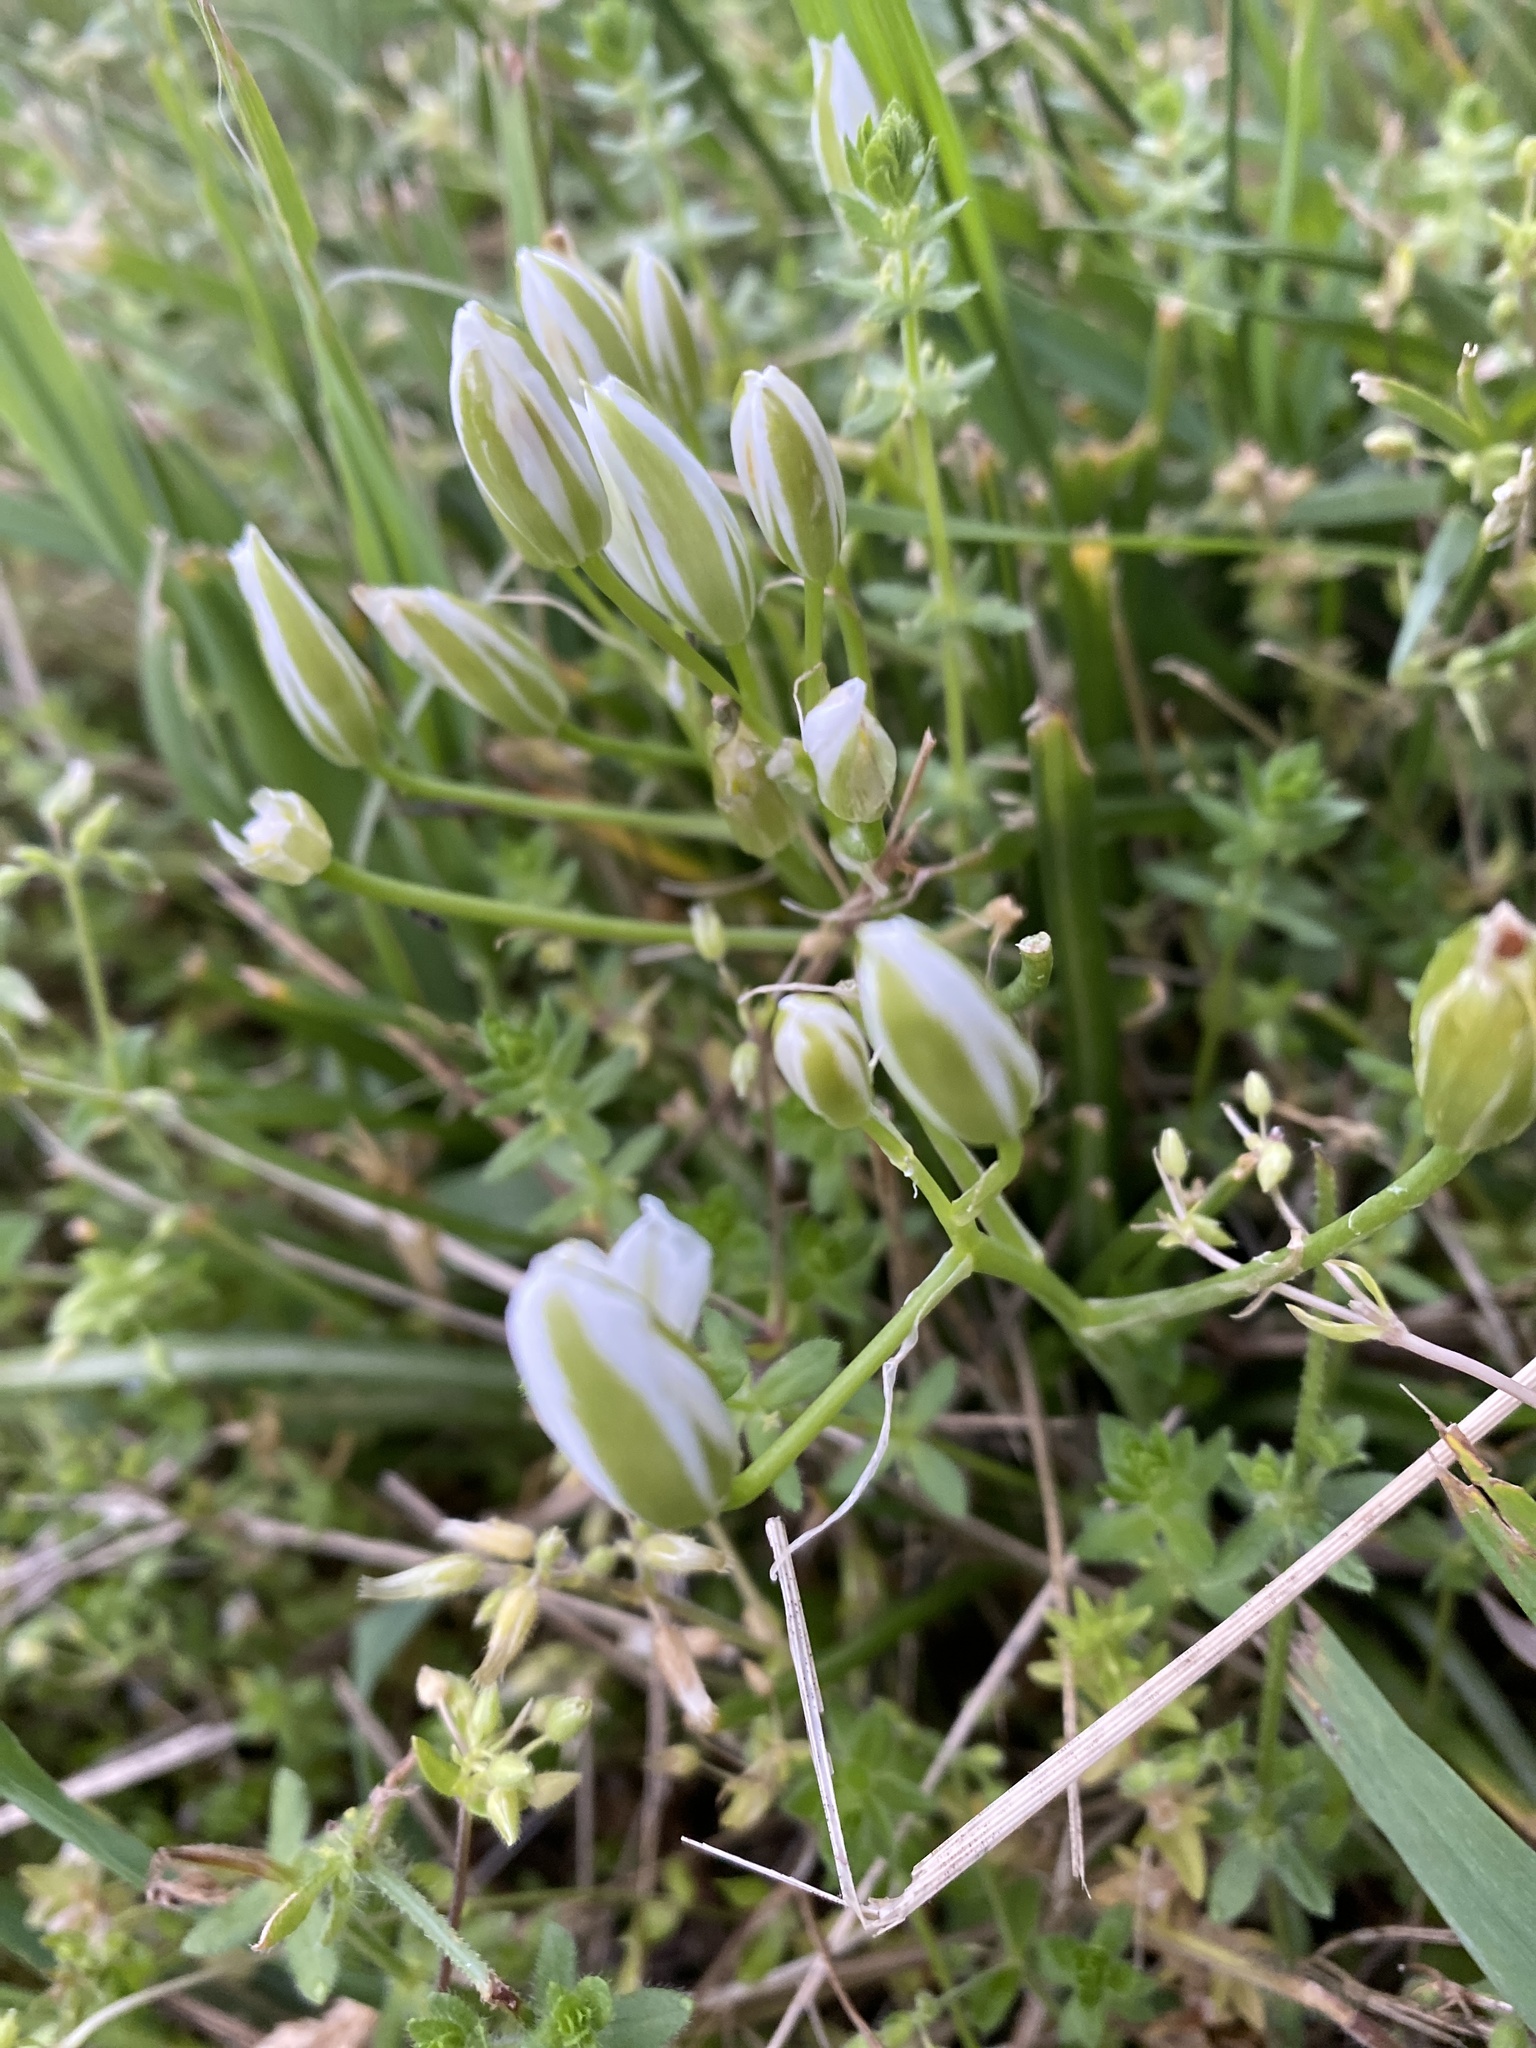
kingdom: Plantae
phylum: Tracheophyta
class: Liliopsida
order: Asparagales
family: Asparagaceae
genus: Ornithogalum
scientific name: Ornithogalum umbellatum
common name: Garden star-of-bethlehem
